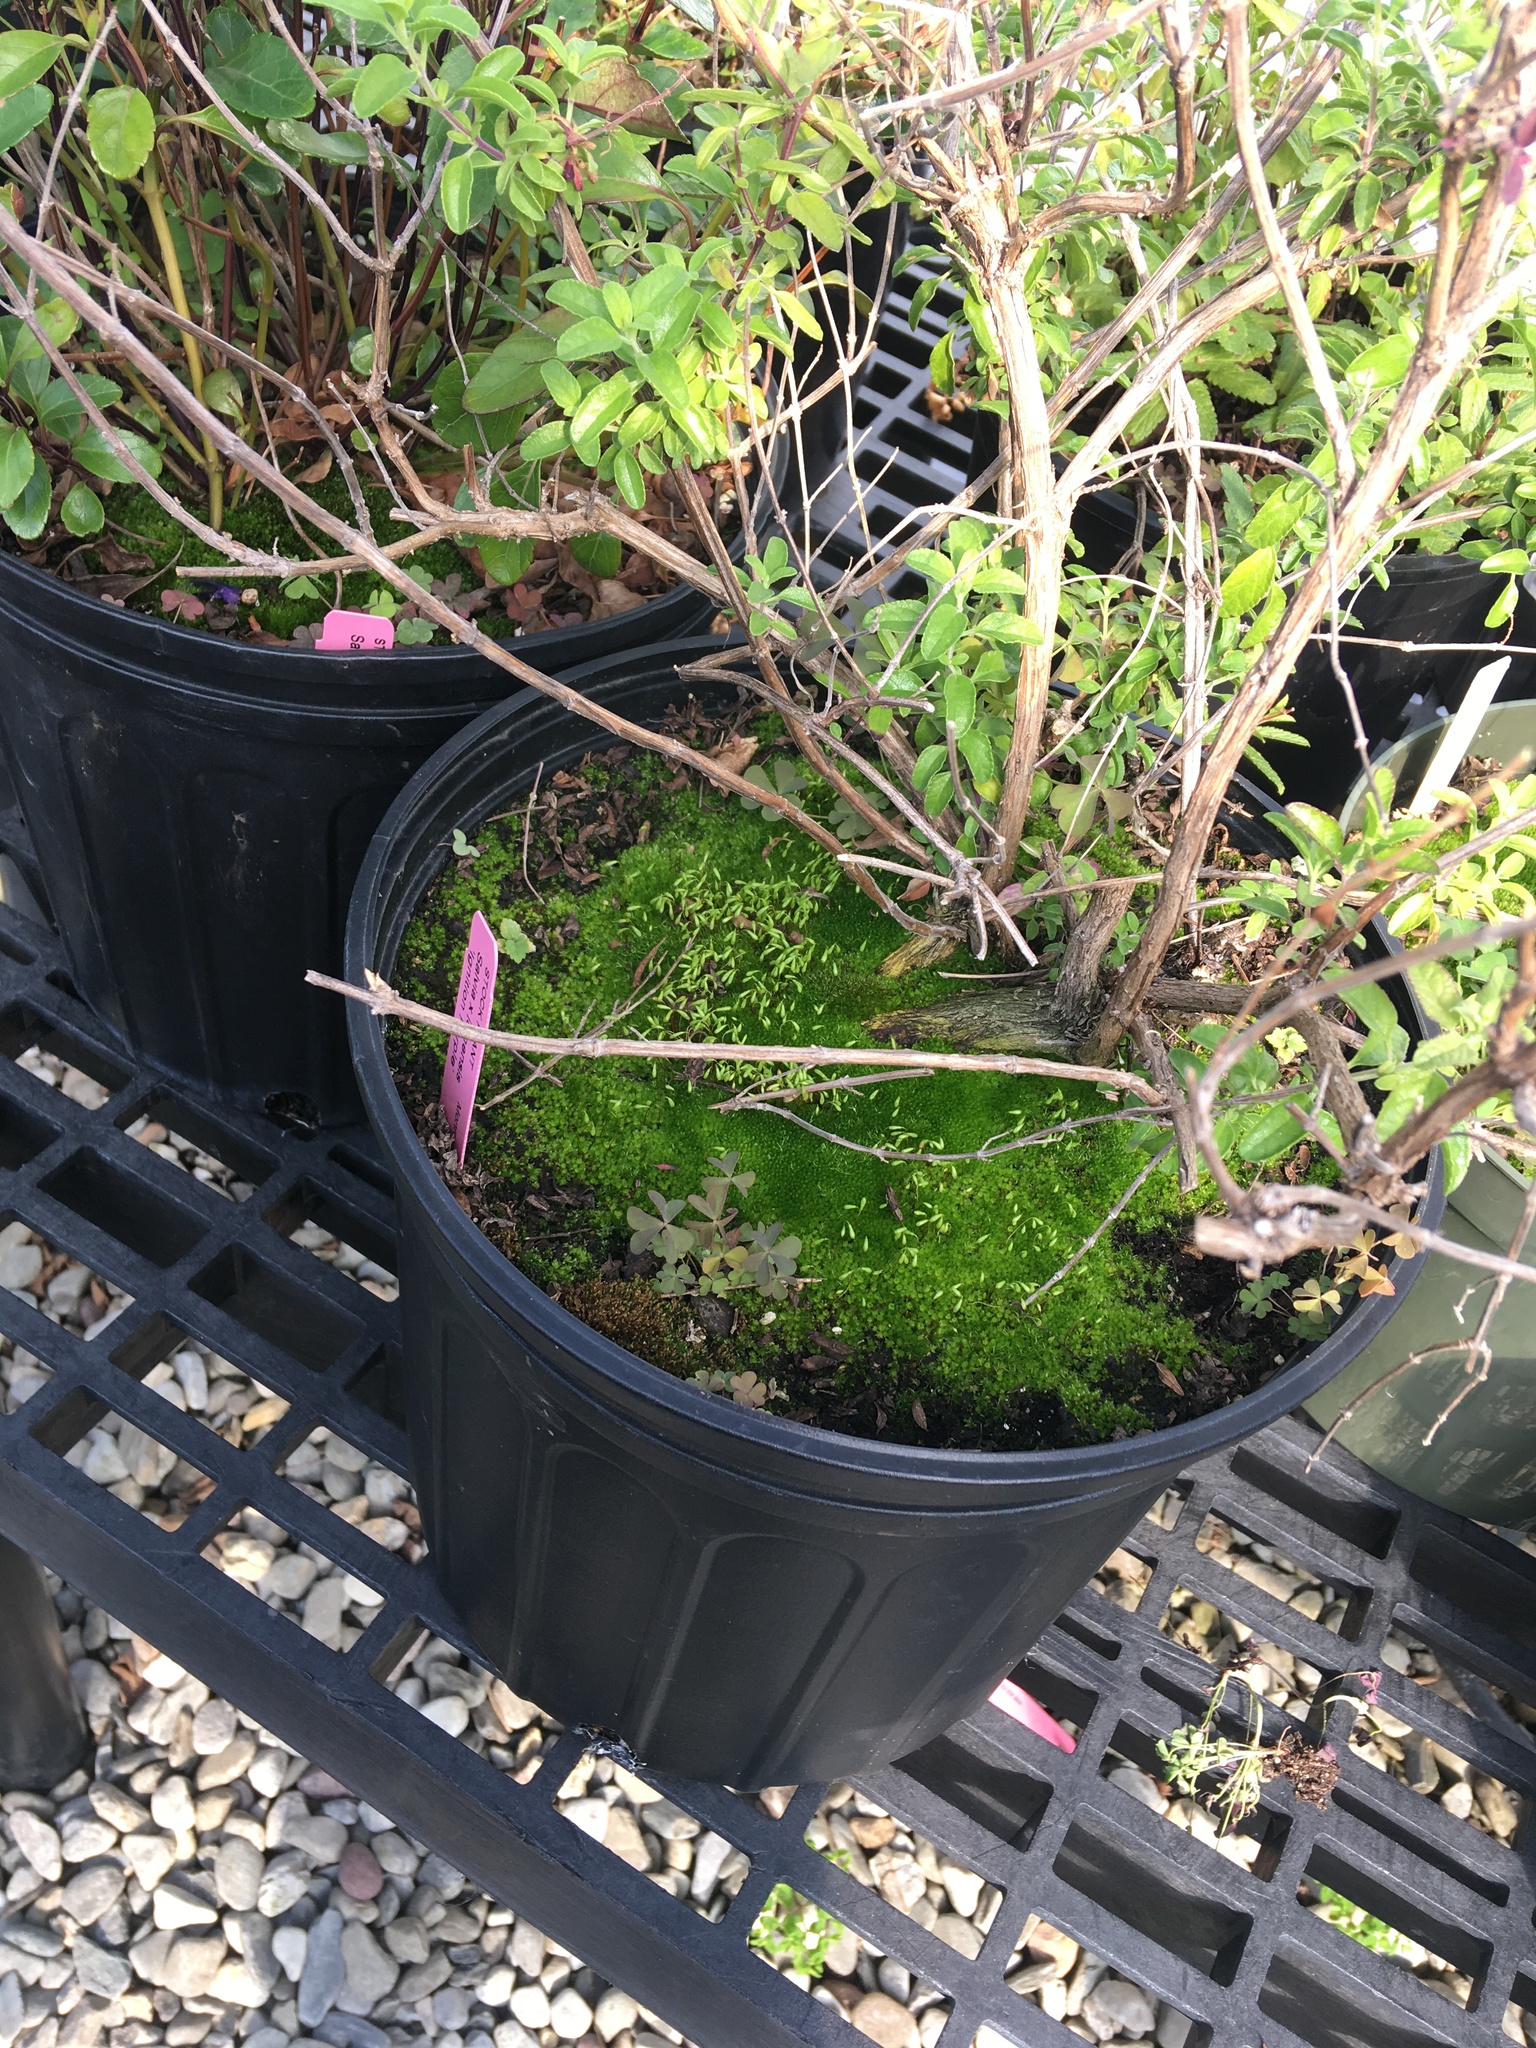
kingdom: Plantae
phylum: Bryophyta
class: Bryopsida
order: Funariales
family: Funariaceae
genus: Funaria
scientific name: Funaria hygrometrica
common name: Common cord moss
